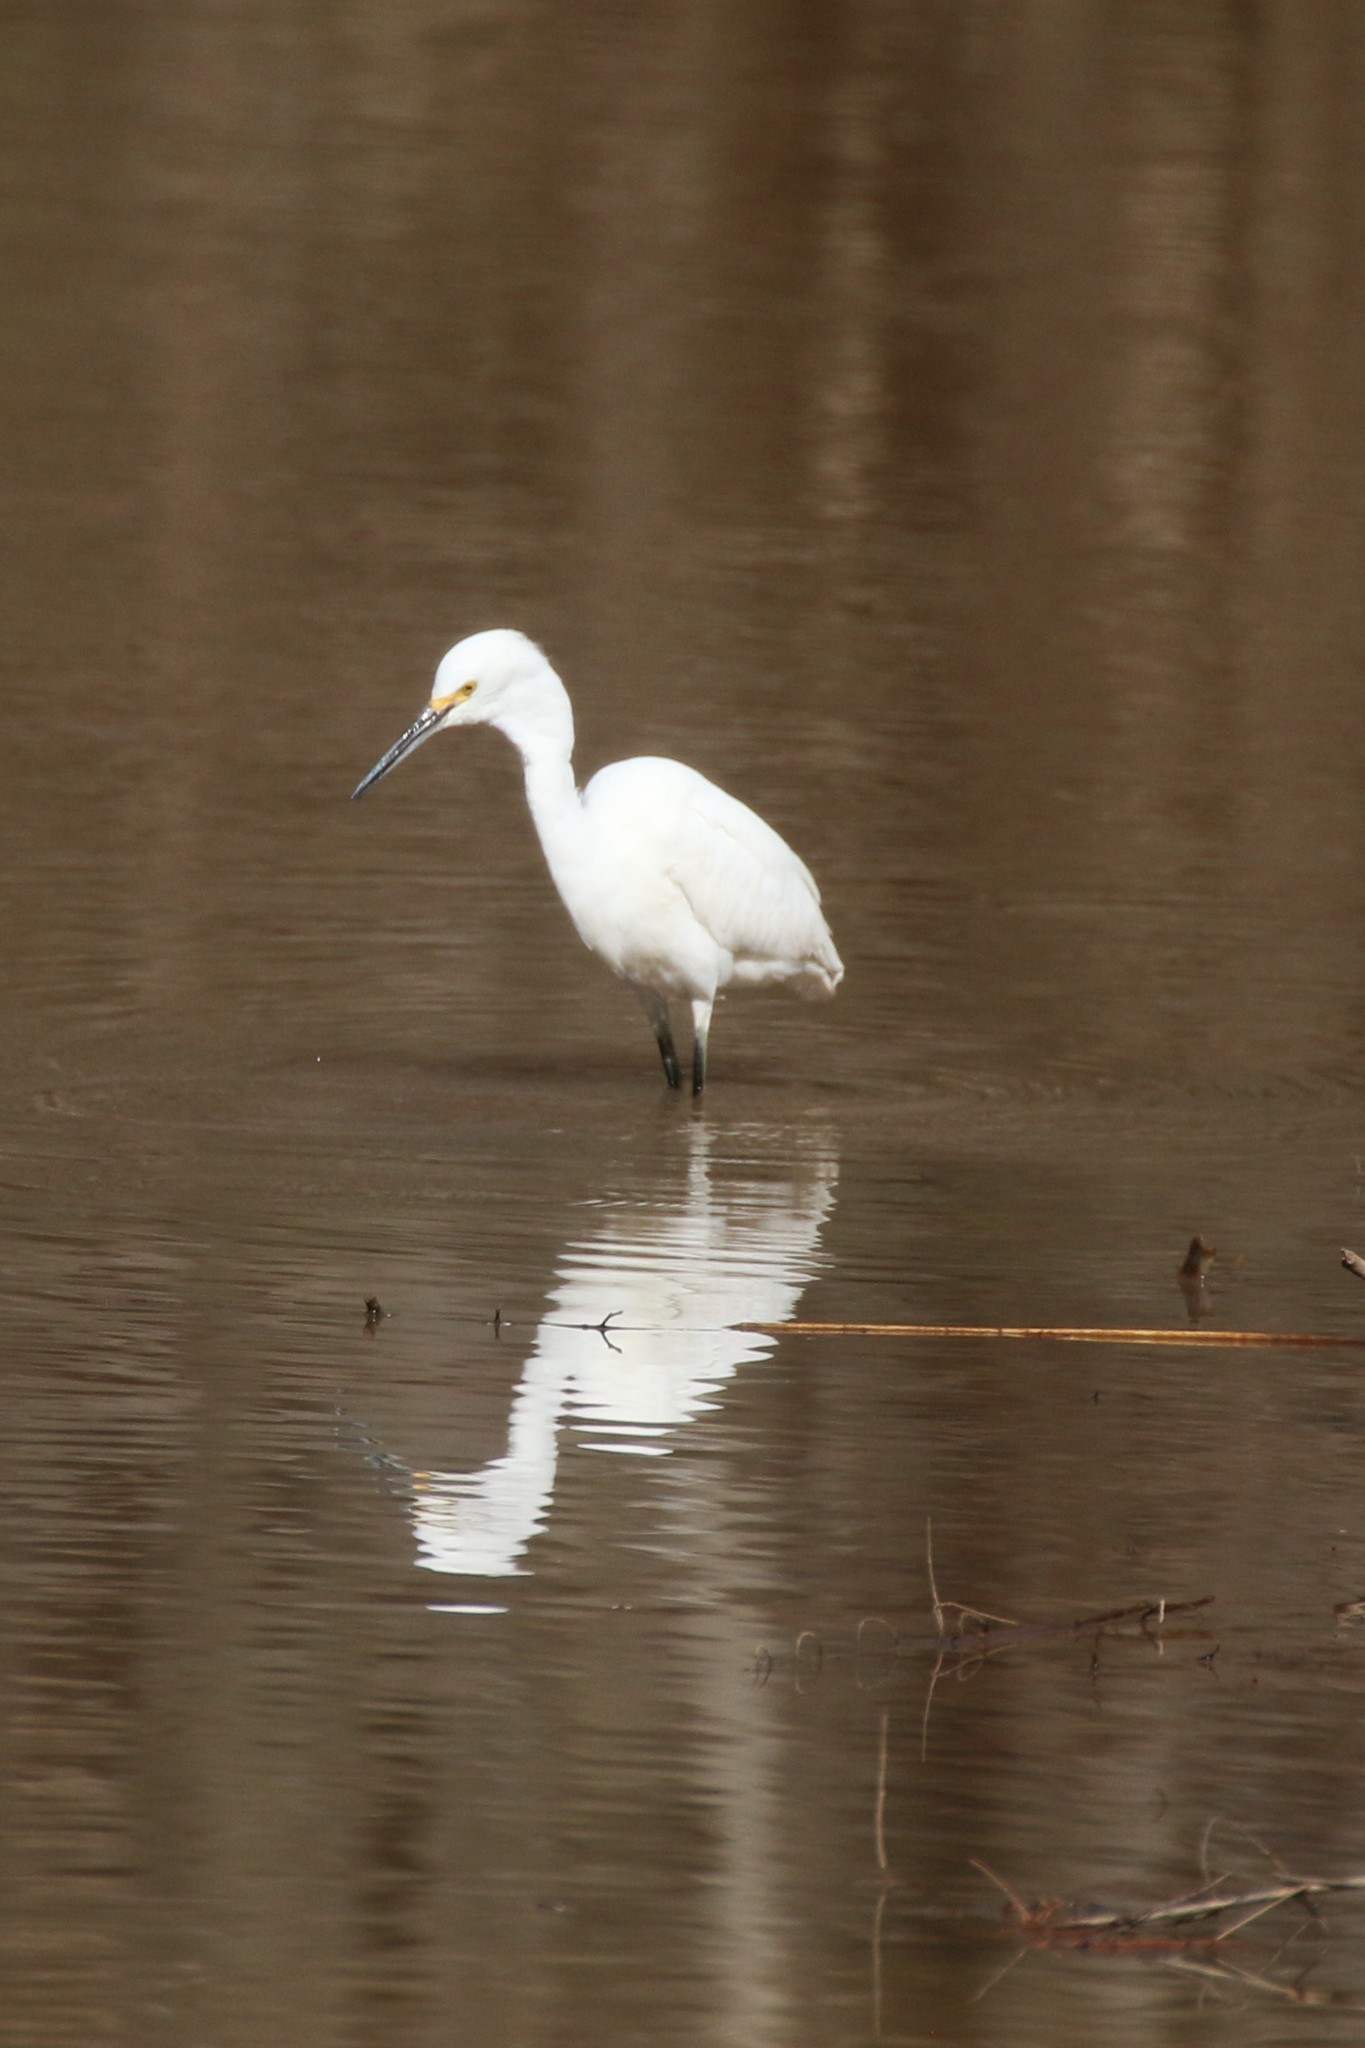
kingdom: Animalia
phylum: Chordata
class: Aves
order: Pelecaniformes
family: Ardeidae
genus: Egretta
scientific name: Egretta thula
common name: Snowy egret
